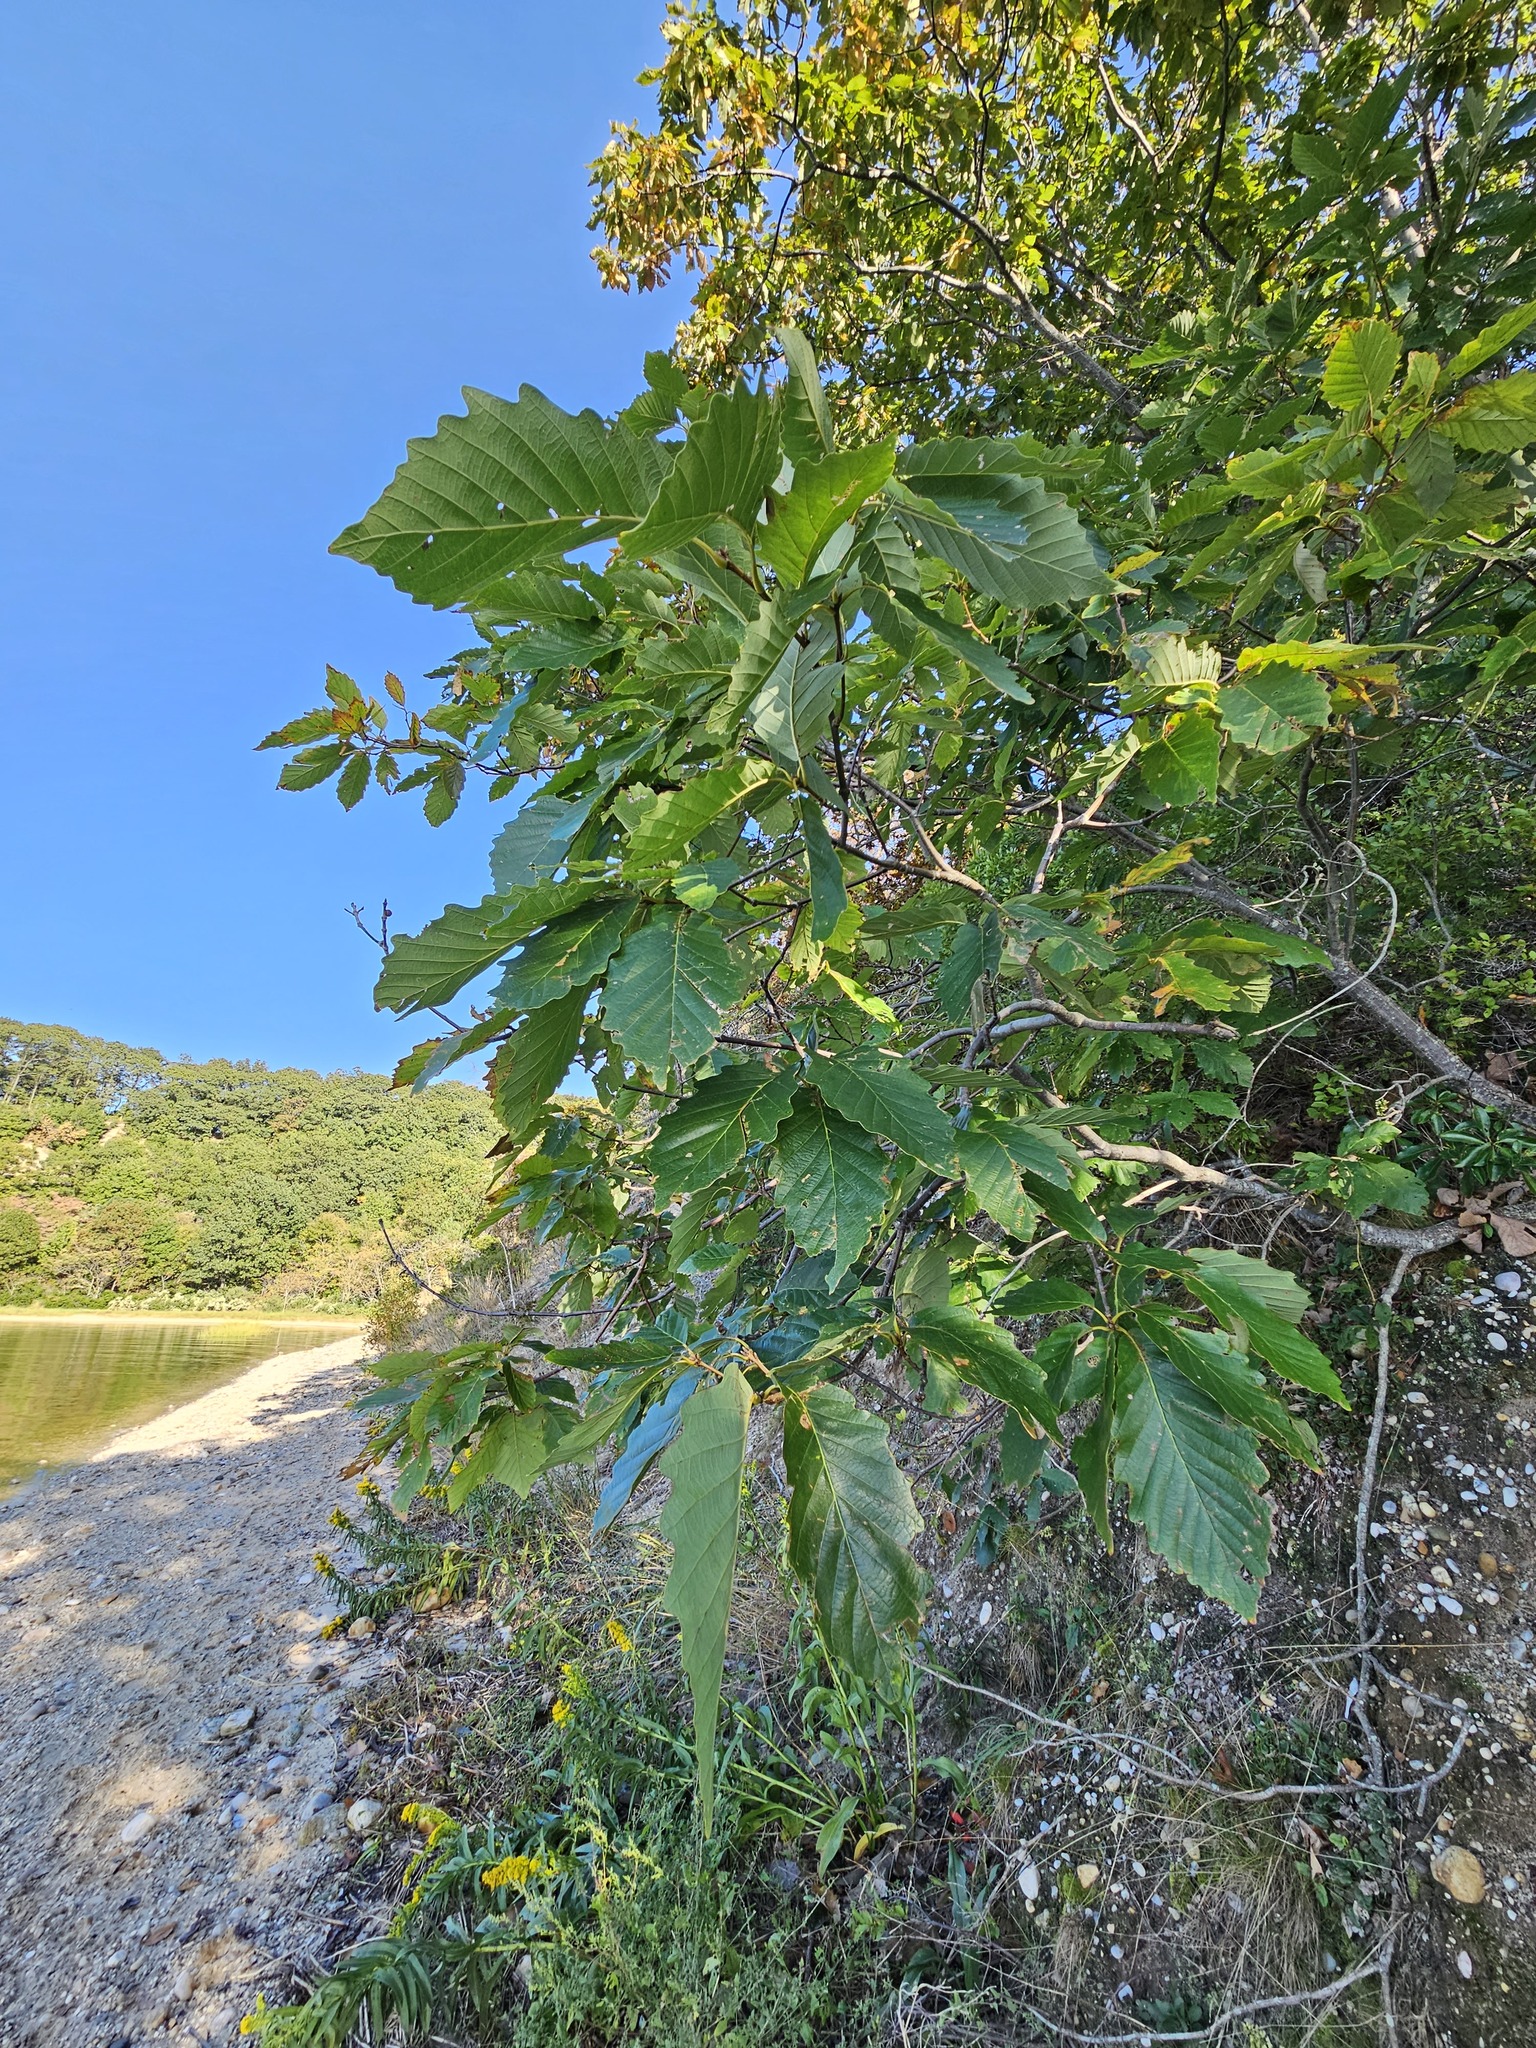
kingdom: Plantae
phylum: Tracheophyta
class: Magnoliopsida
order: Fagales
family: Fagaceae
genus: Quercus
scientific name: Quercus montana
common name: Chestnut oak
